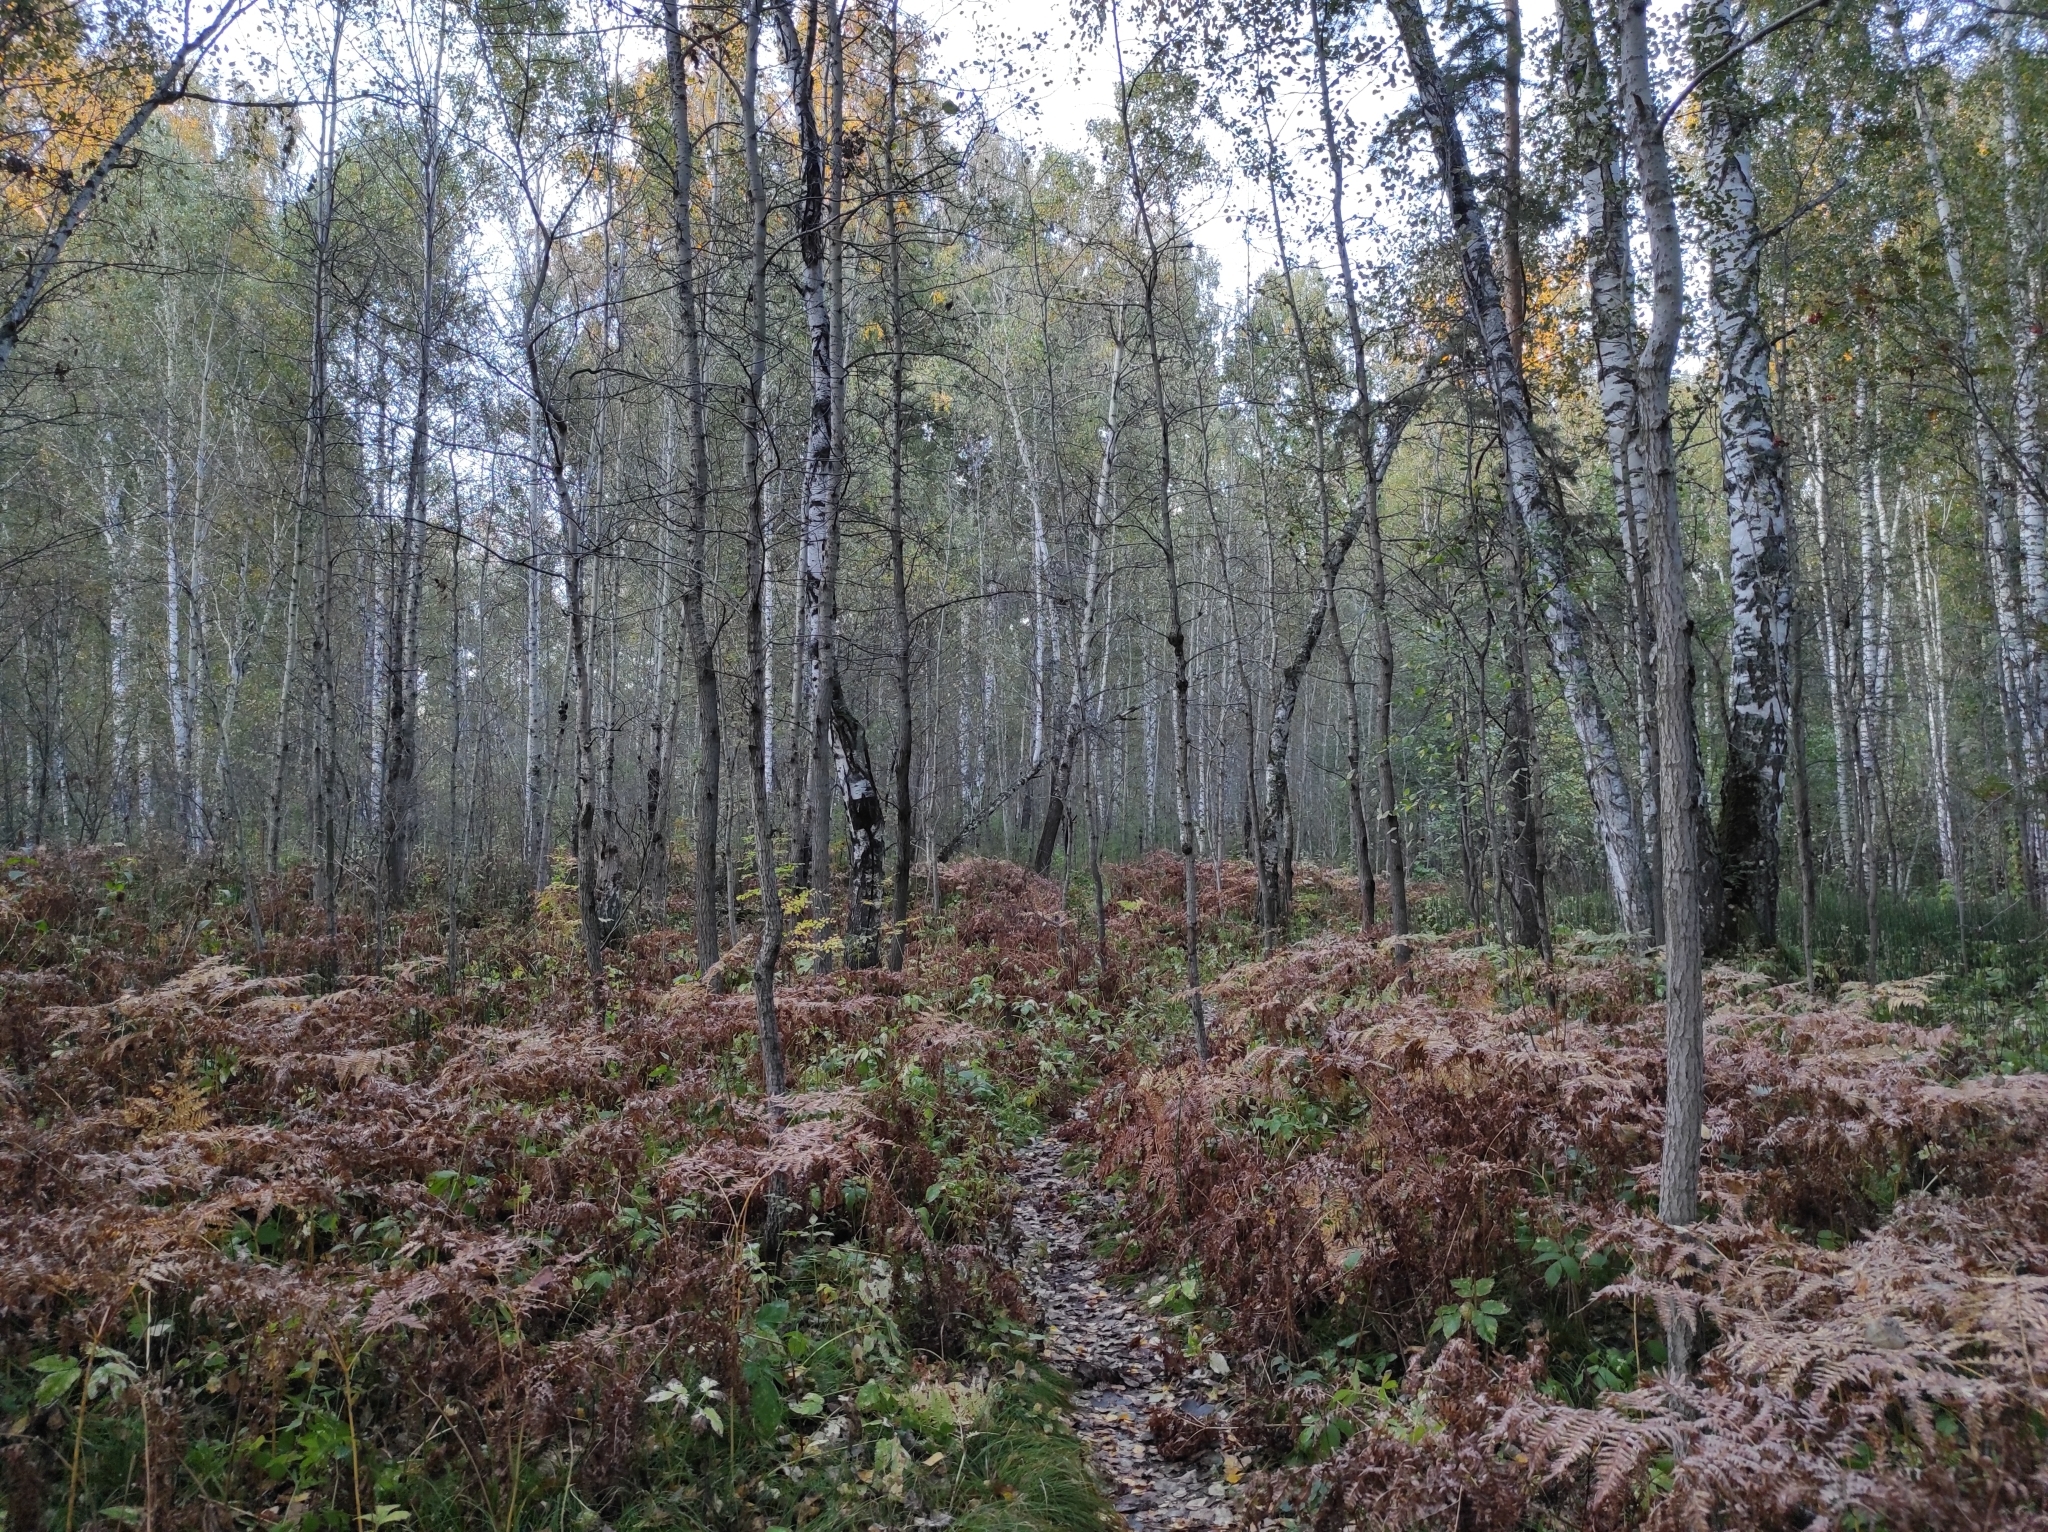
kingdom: Plantae
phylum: Tracheophyta
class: Magnoliopsida
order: Fagales
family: Betulaceae
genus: Betula
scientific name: Betula pendula
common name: Silver birch
